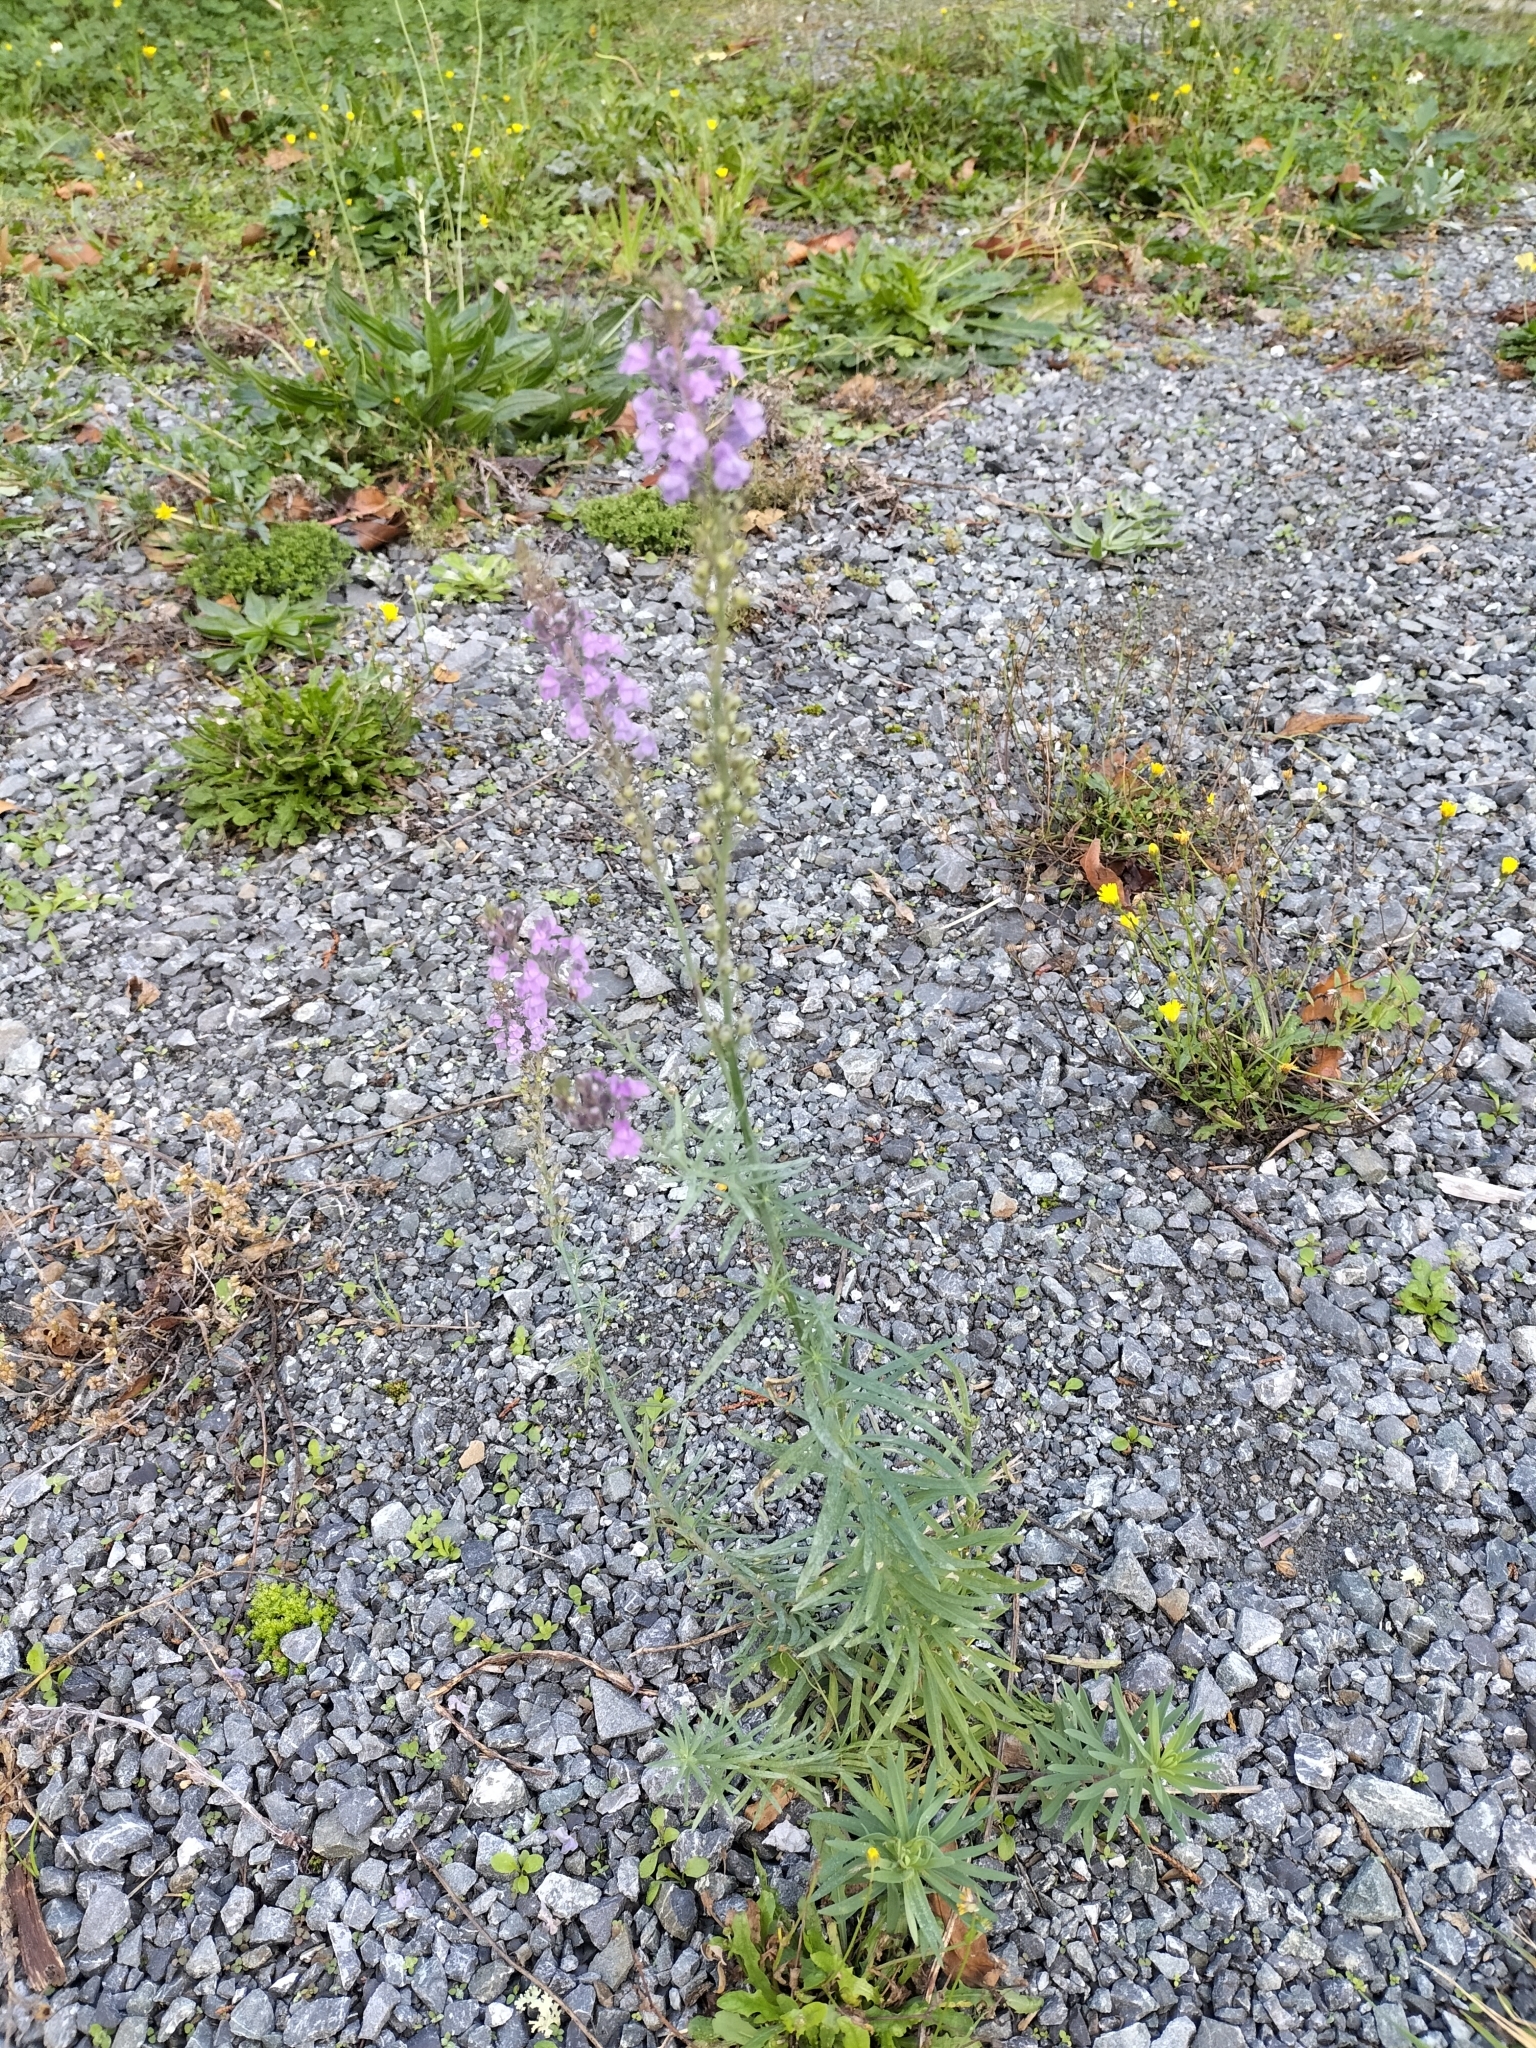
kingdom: Plantae
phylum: Tracheophyta
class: Magnoliopsida
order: Lamiales
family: Plantaginaceae
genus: Linaria
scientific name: Linaria purpurea
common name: Purple toadflax
